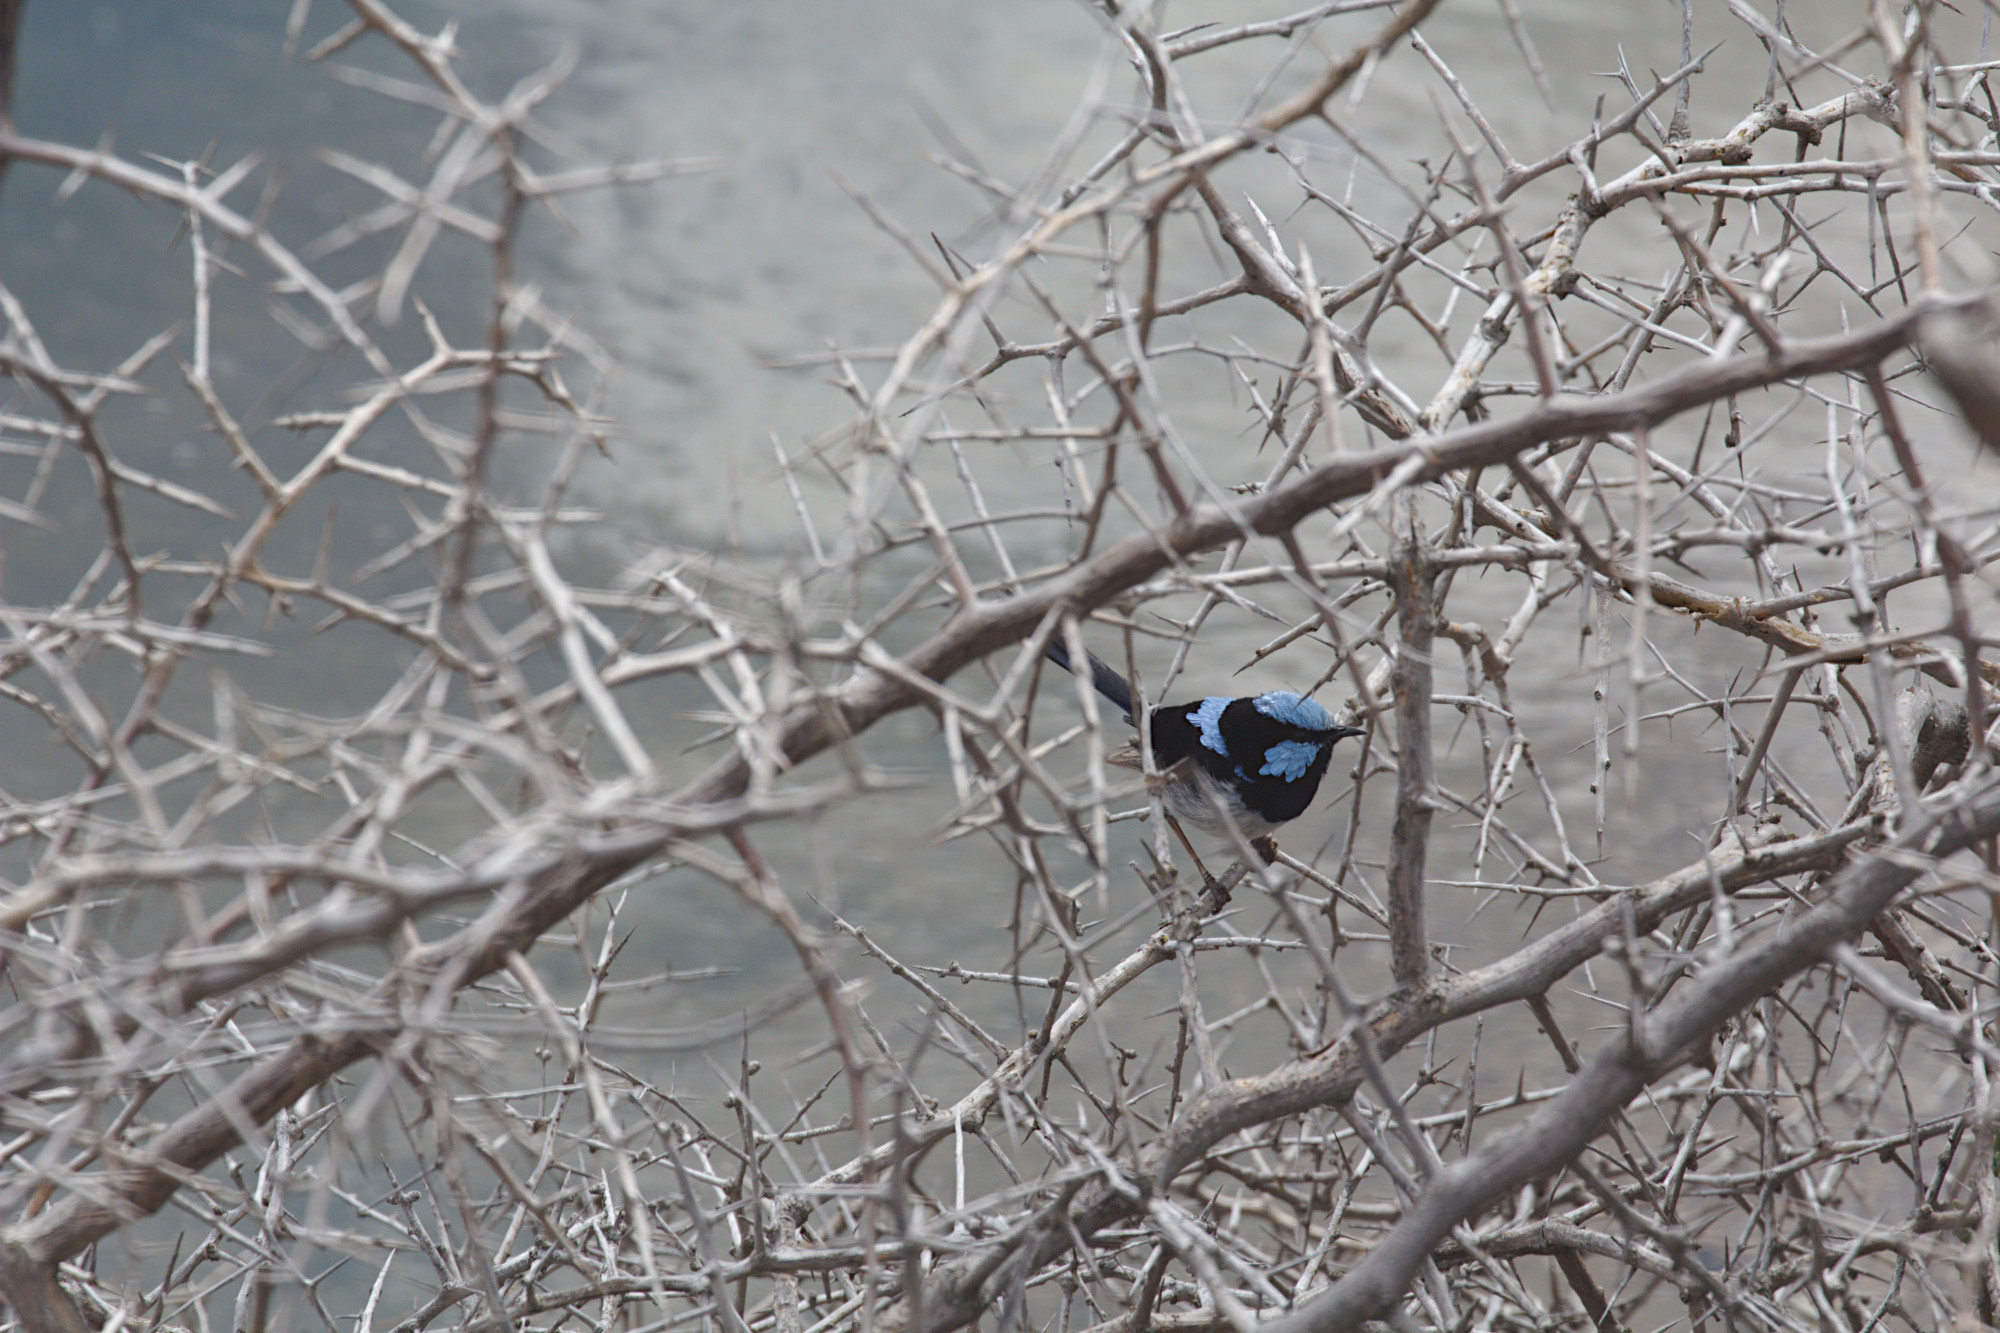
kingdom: Animalia
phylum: Chordata
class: Aves
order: Passeriformes
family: Maluridae
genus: Malurus
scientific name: Malurus cyaneus
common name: Superb fairywren
